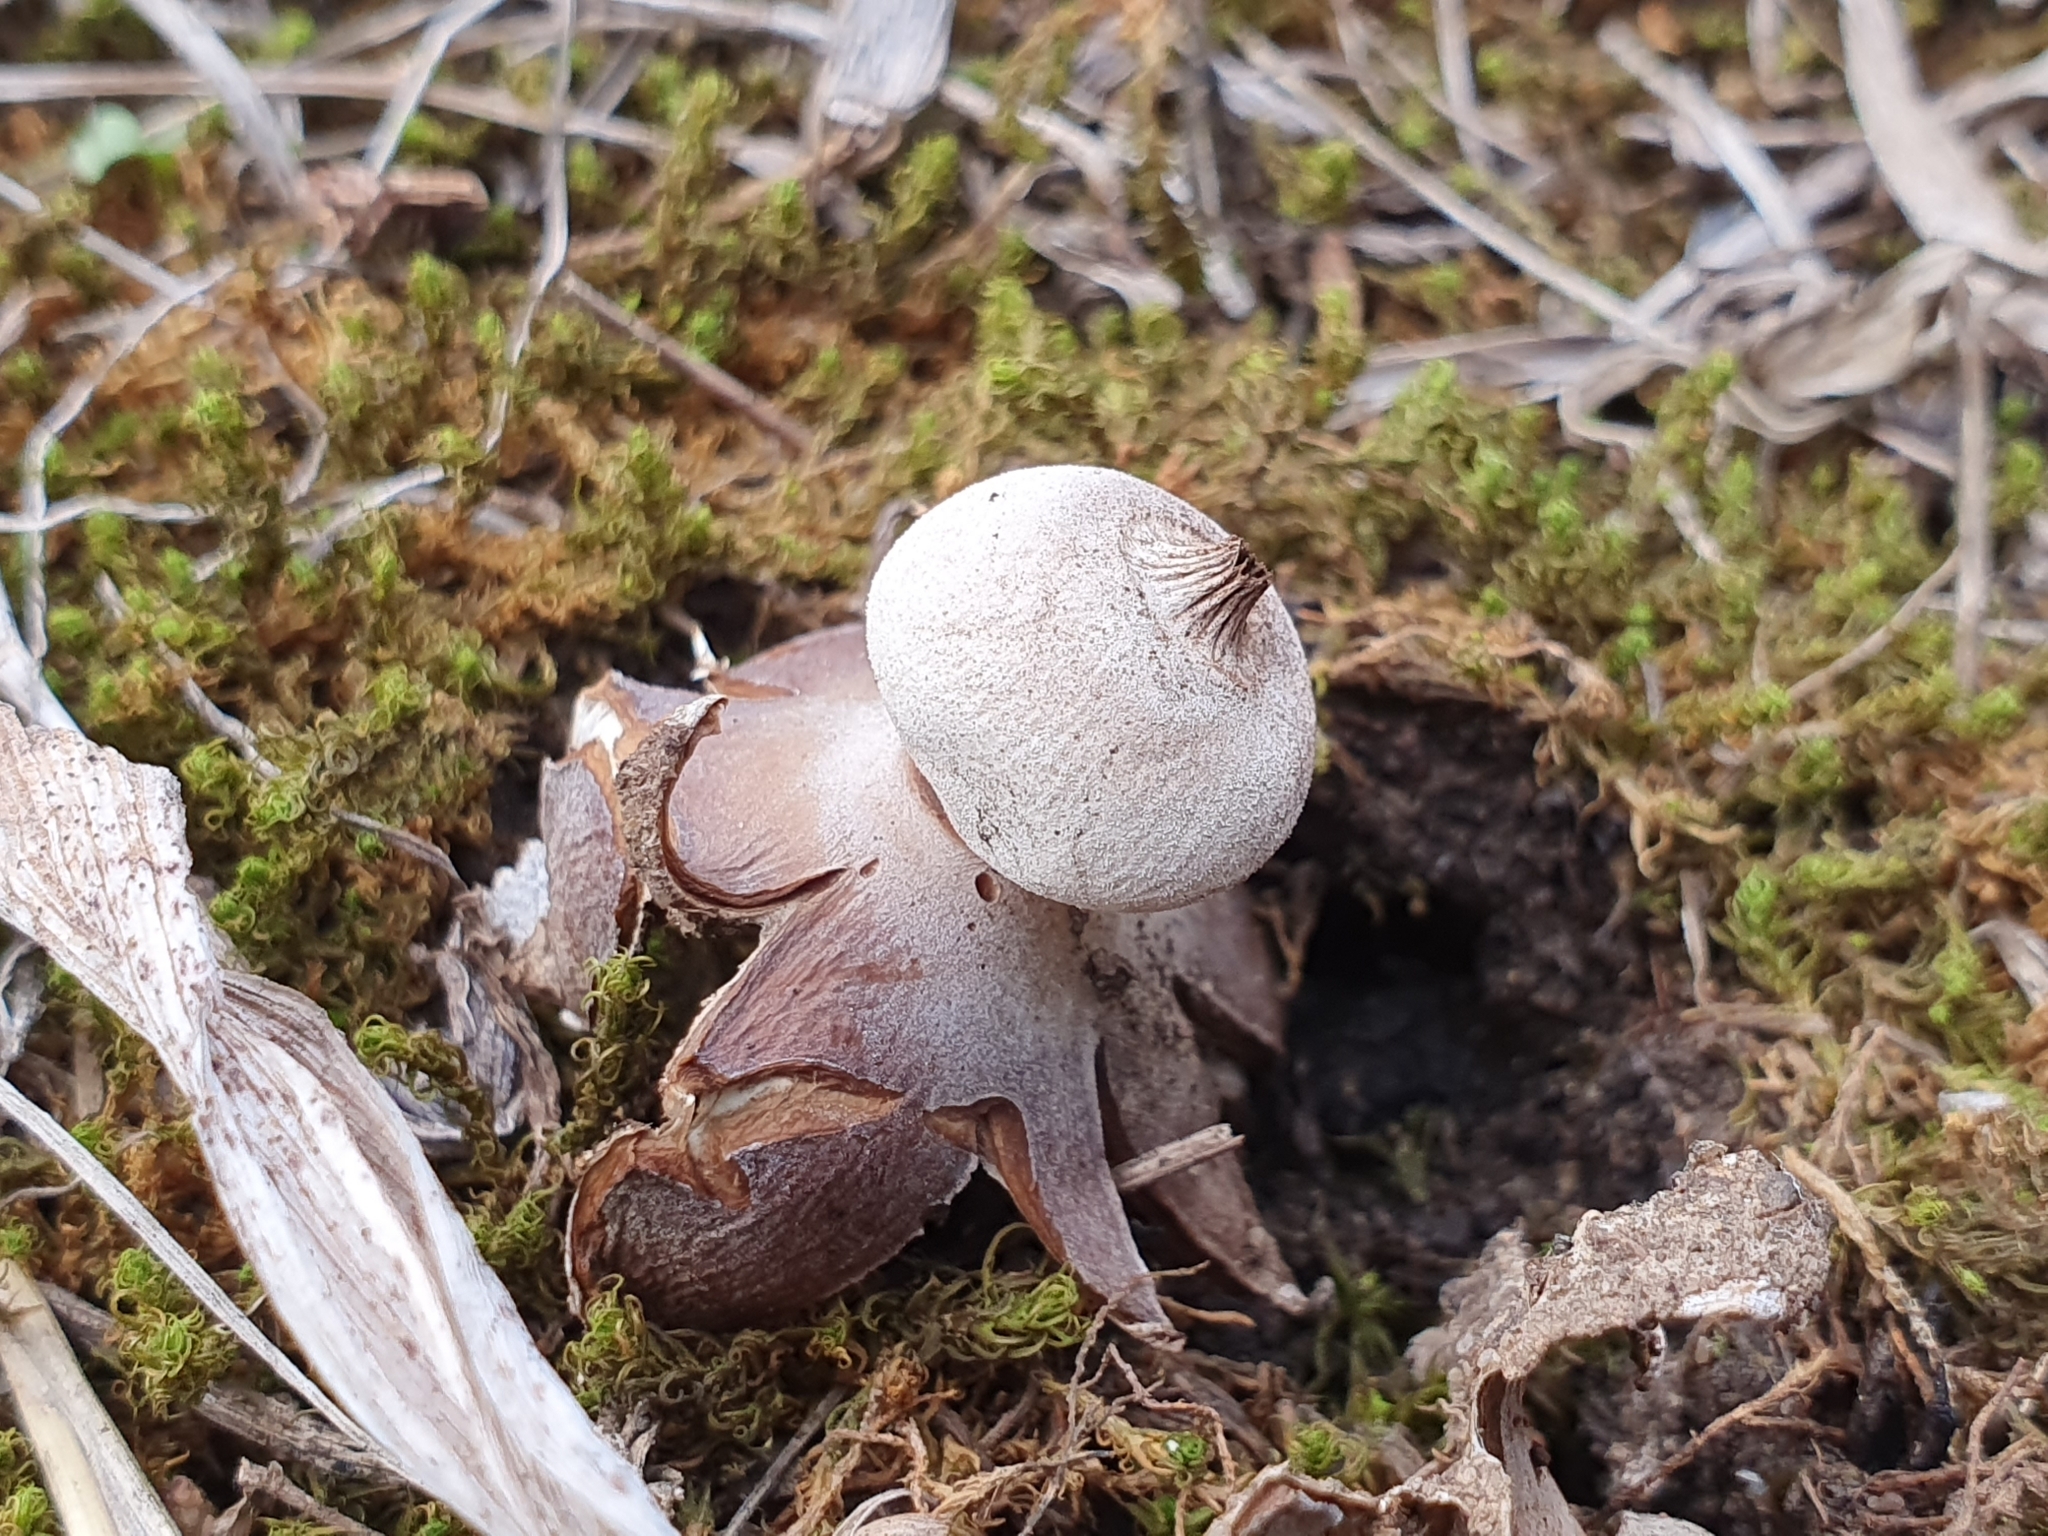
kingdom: Fungi
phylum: Basidiomycota
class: Agaricomycetes
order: Geastrales
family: Geastraceae
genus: Geastrum
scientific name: Geastrum striatum
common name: Striate earthstar
